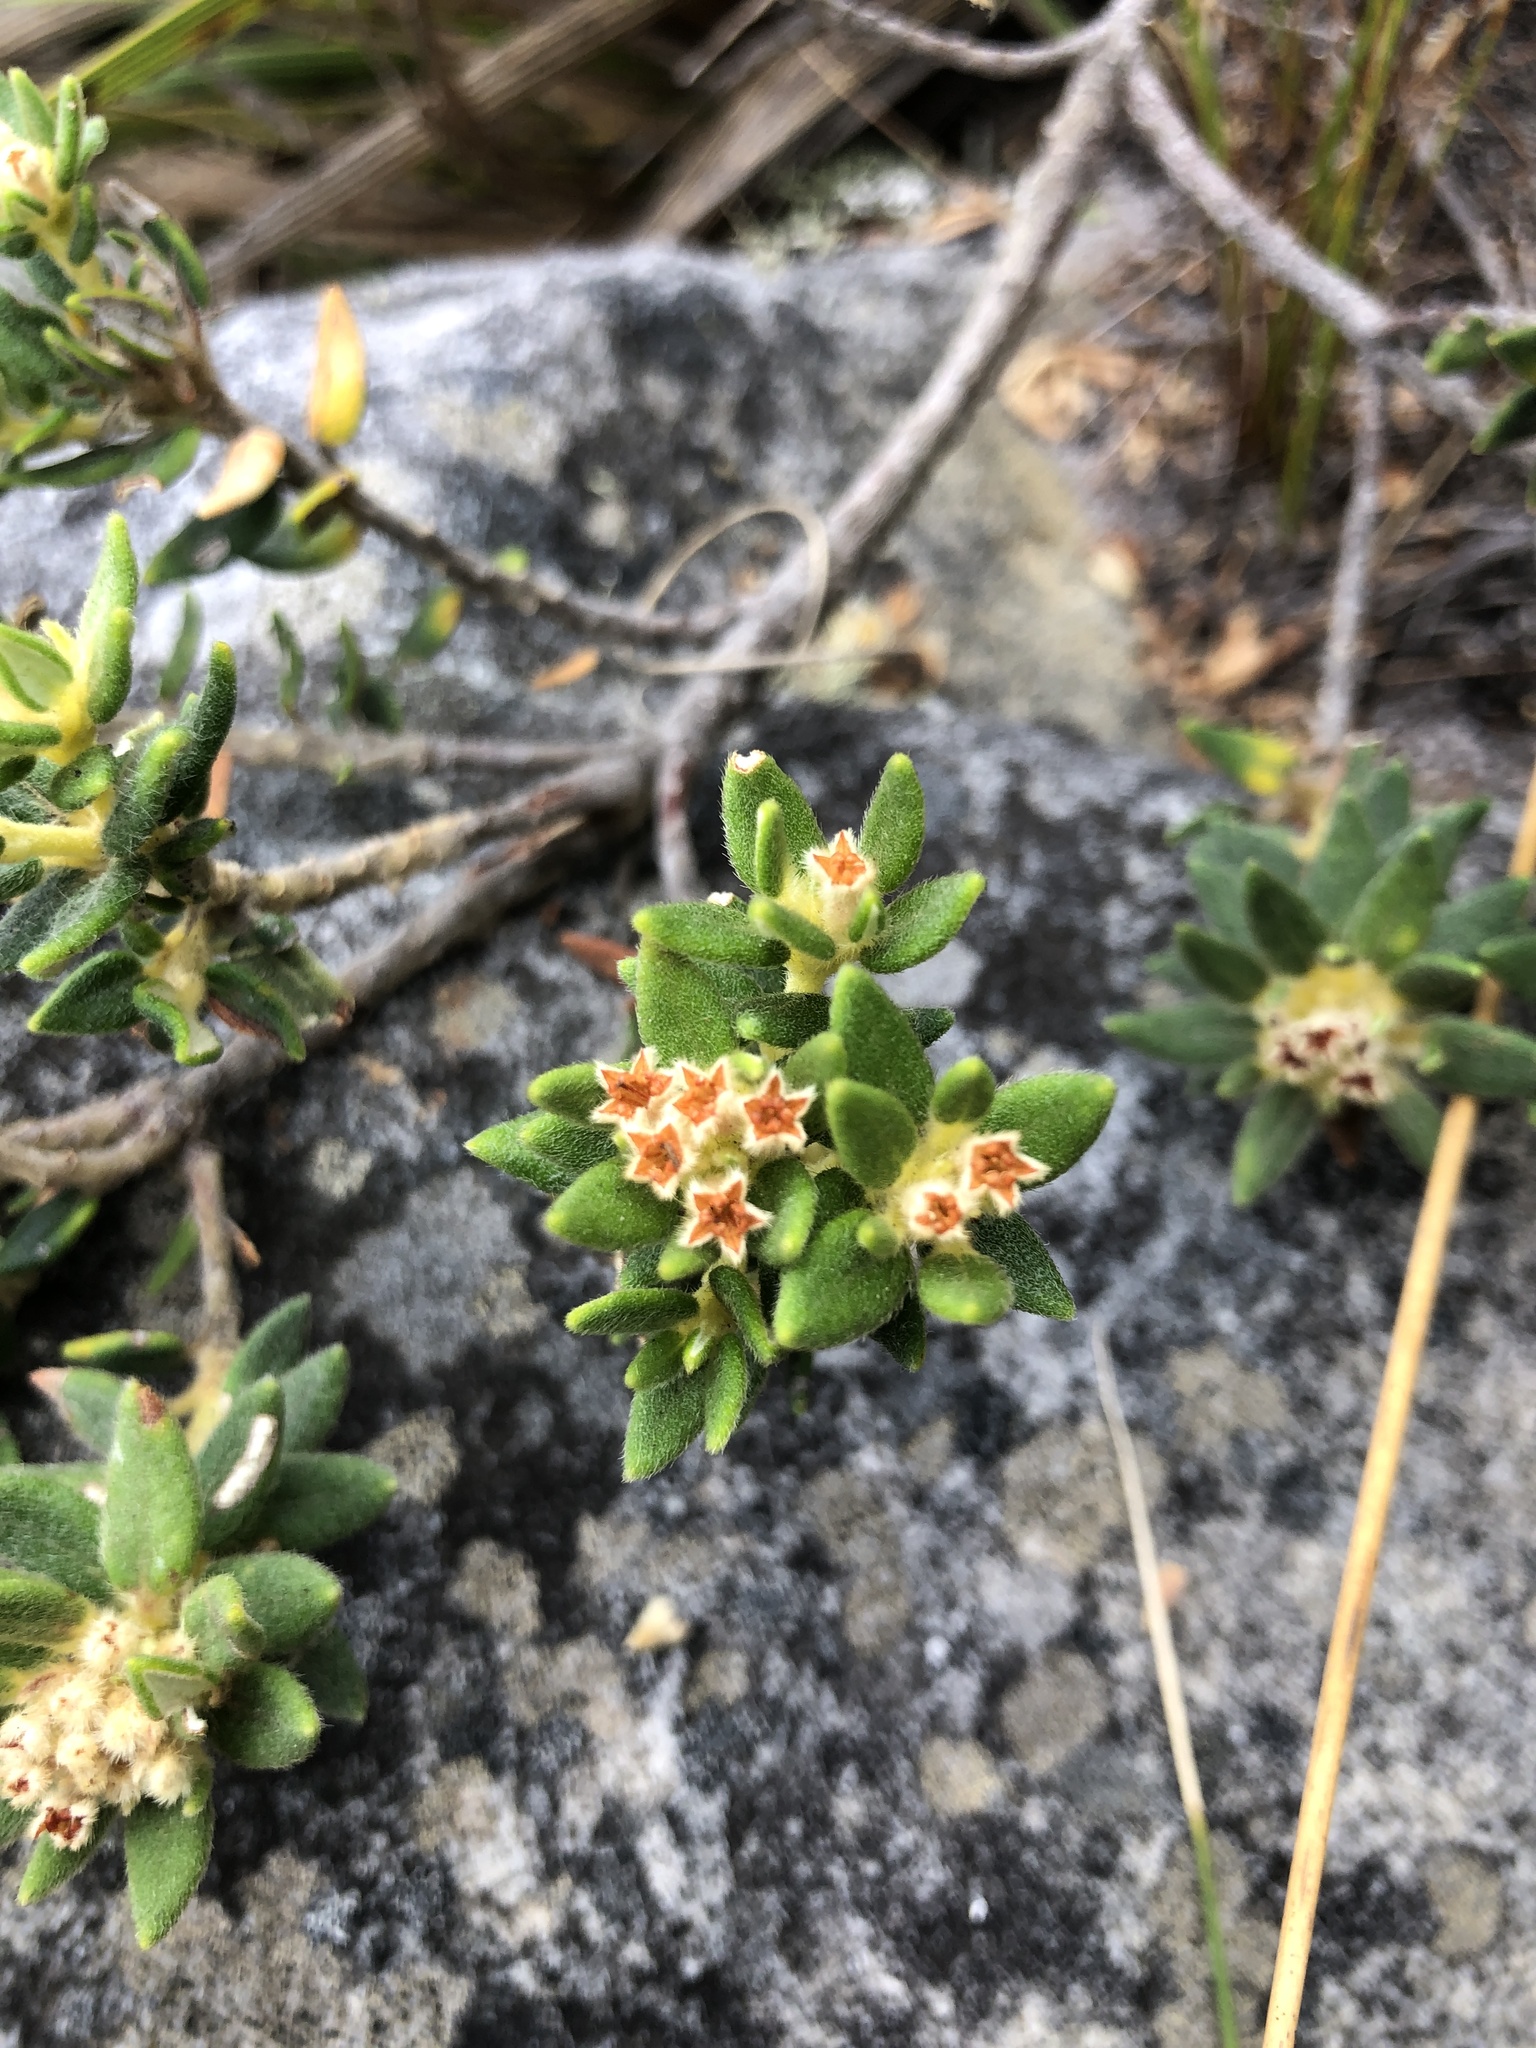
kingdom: Plantae
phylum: Tracheophyta
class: Magnoliopsida
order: Rosales
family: Rhamnaceae
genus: Phylica
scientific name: Phylica dioica
